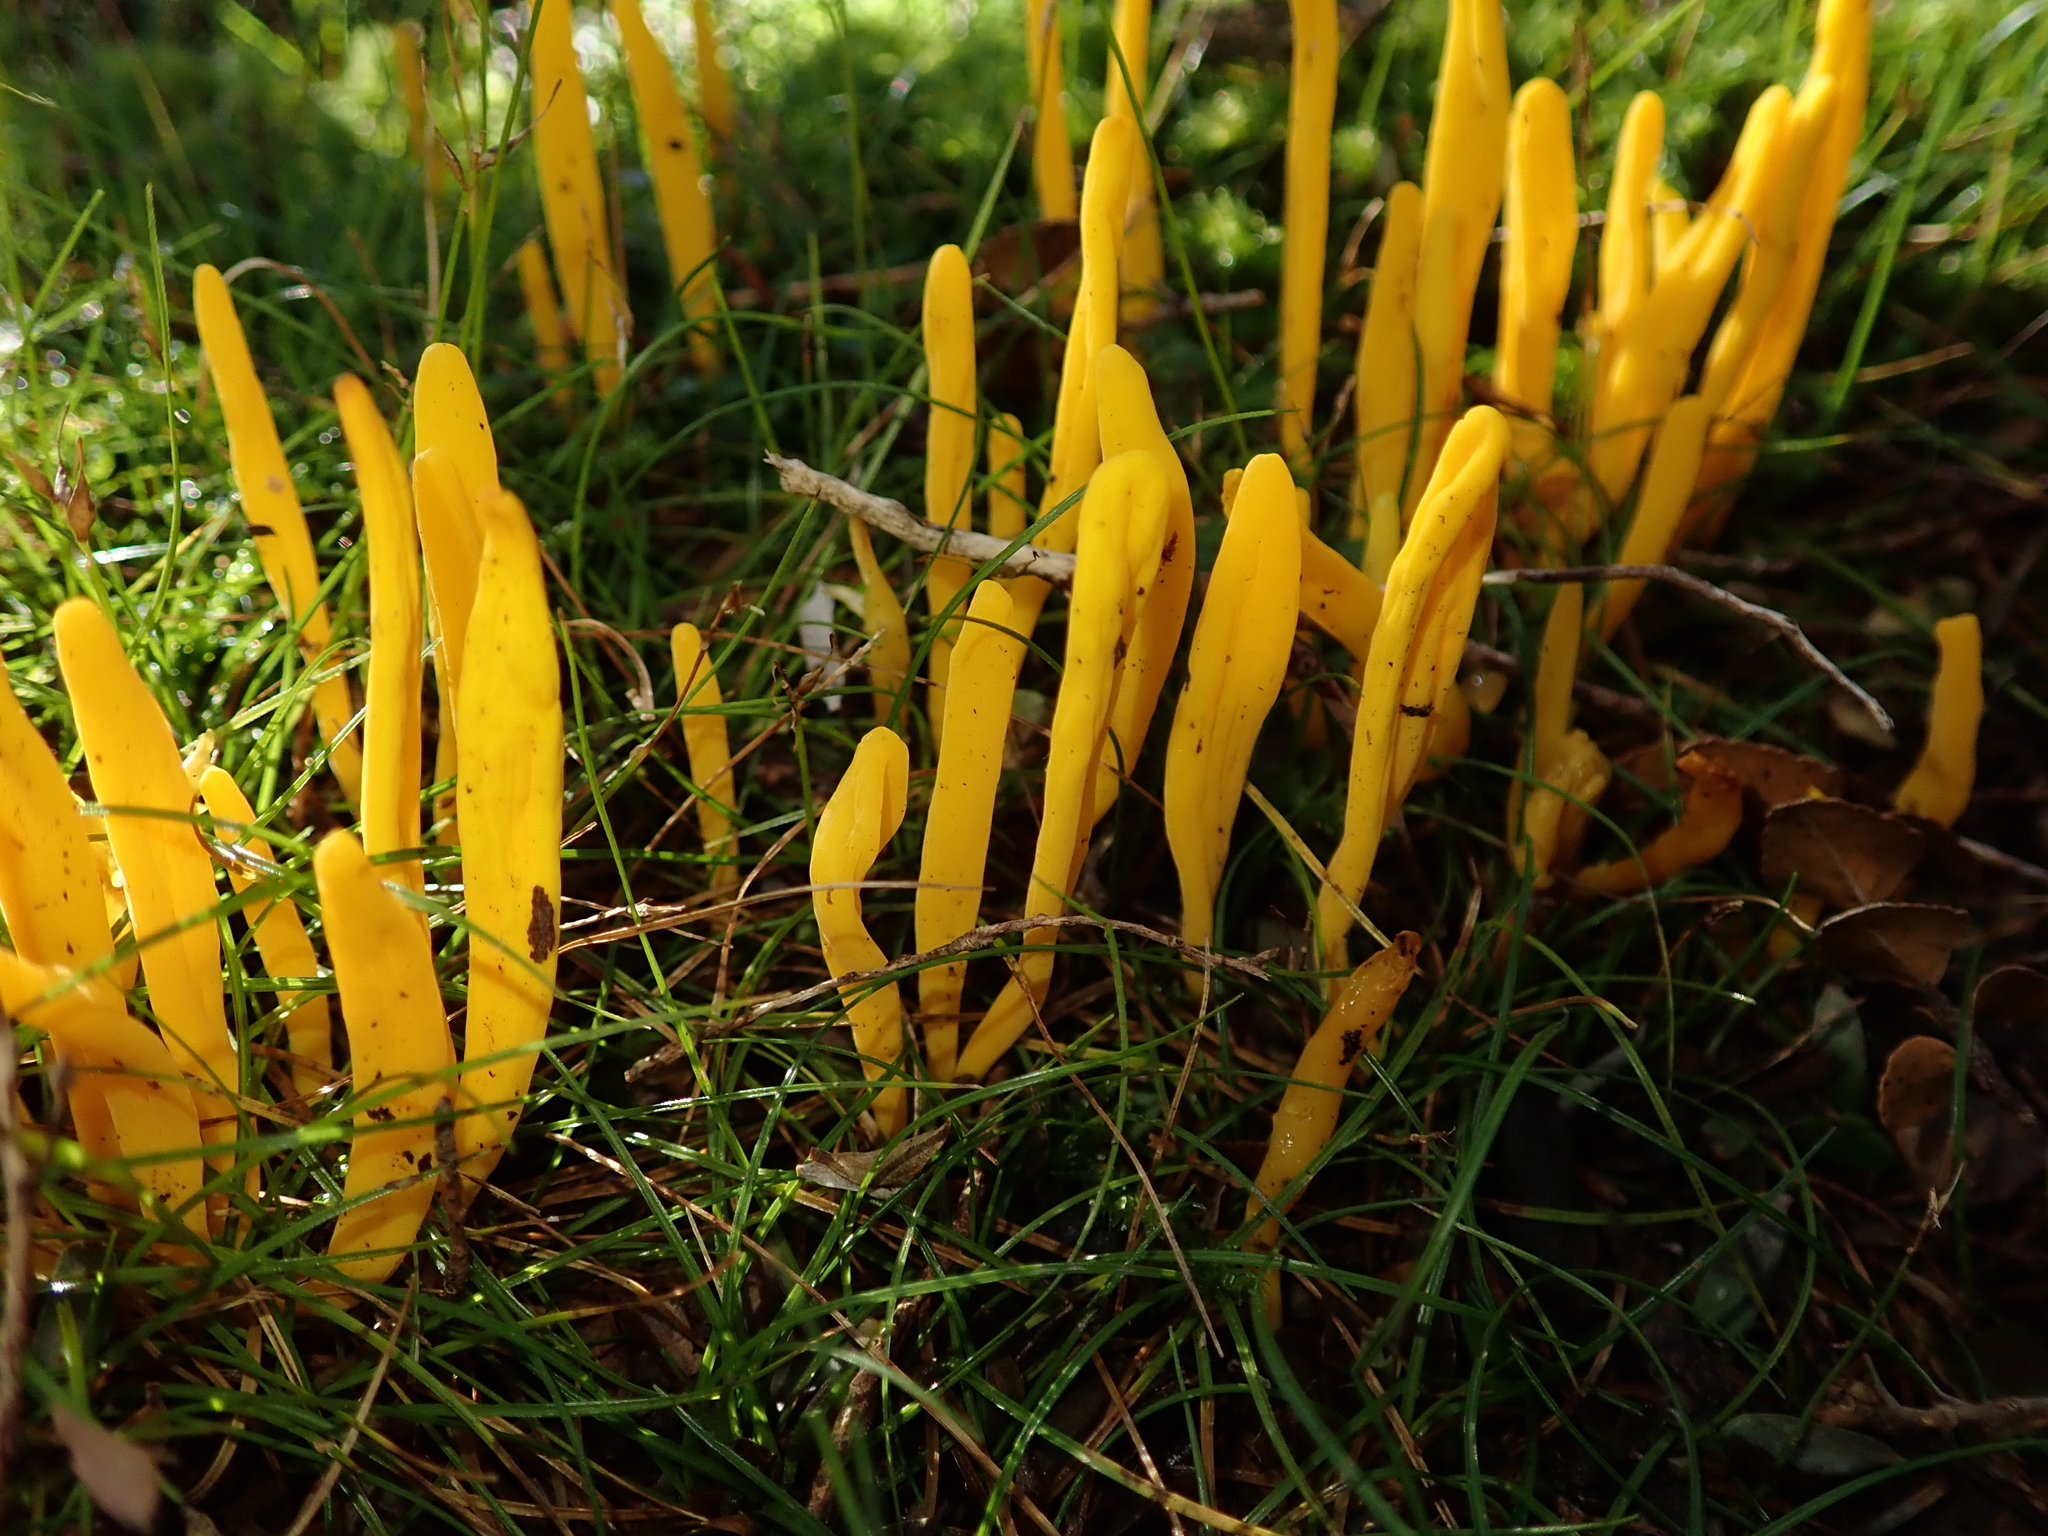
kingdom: Fungi
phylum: Basidiomycota
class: Agaricomycetes
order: Agaricales
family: Clavariaceae
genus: Clavulinopsis
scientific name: Clavulinopsis amoena
